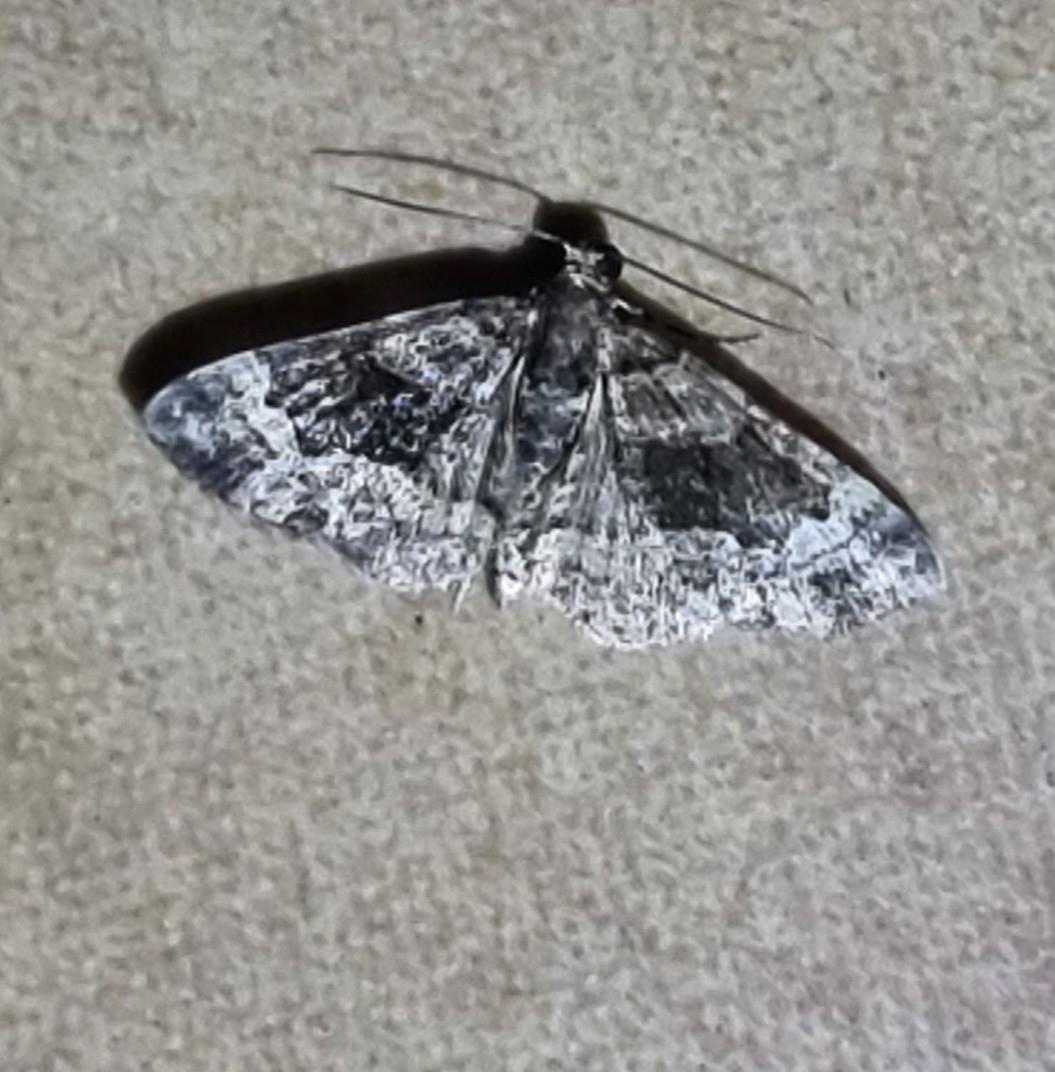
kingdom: Animalia
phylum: Arthropoda
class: Insecta
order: Lepidoptera
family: Geometridae
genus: Epyaxa
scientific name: Epyaxa sodaliata
